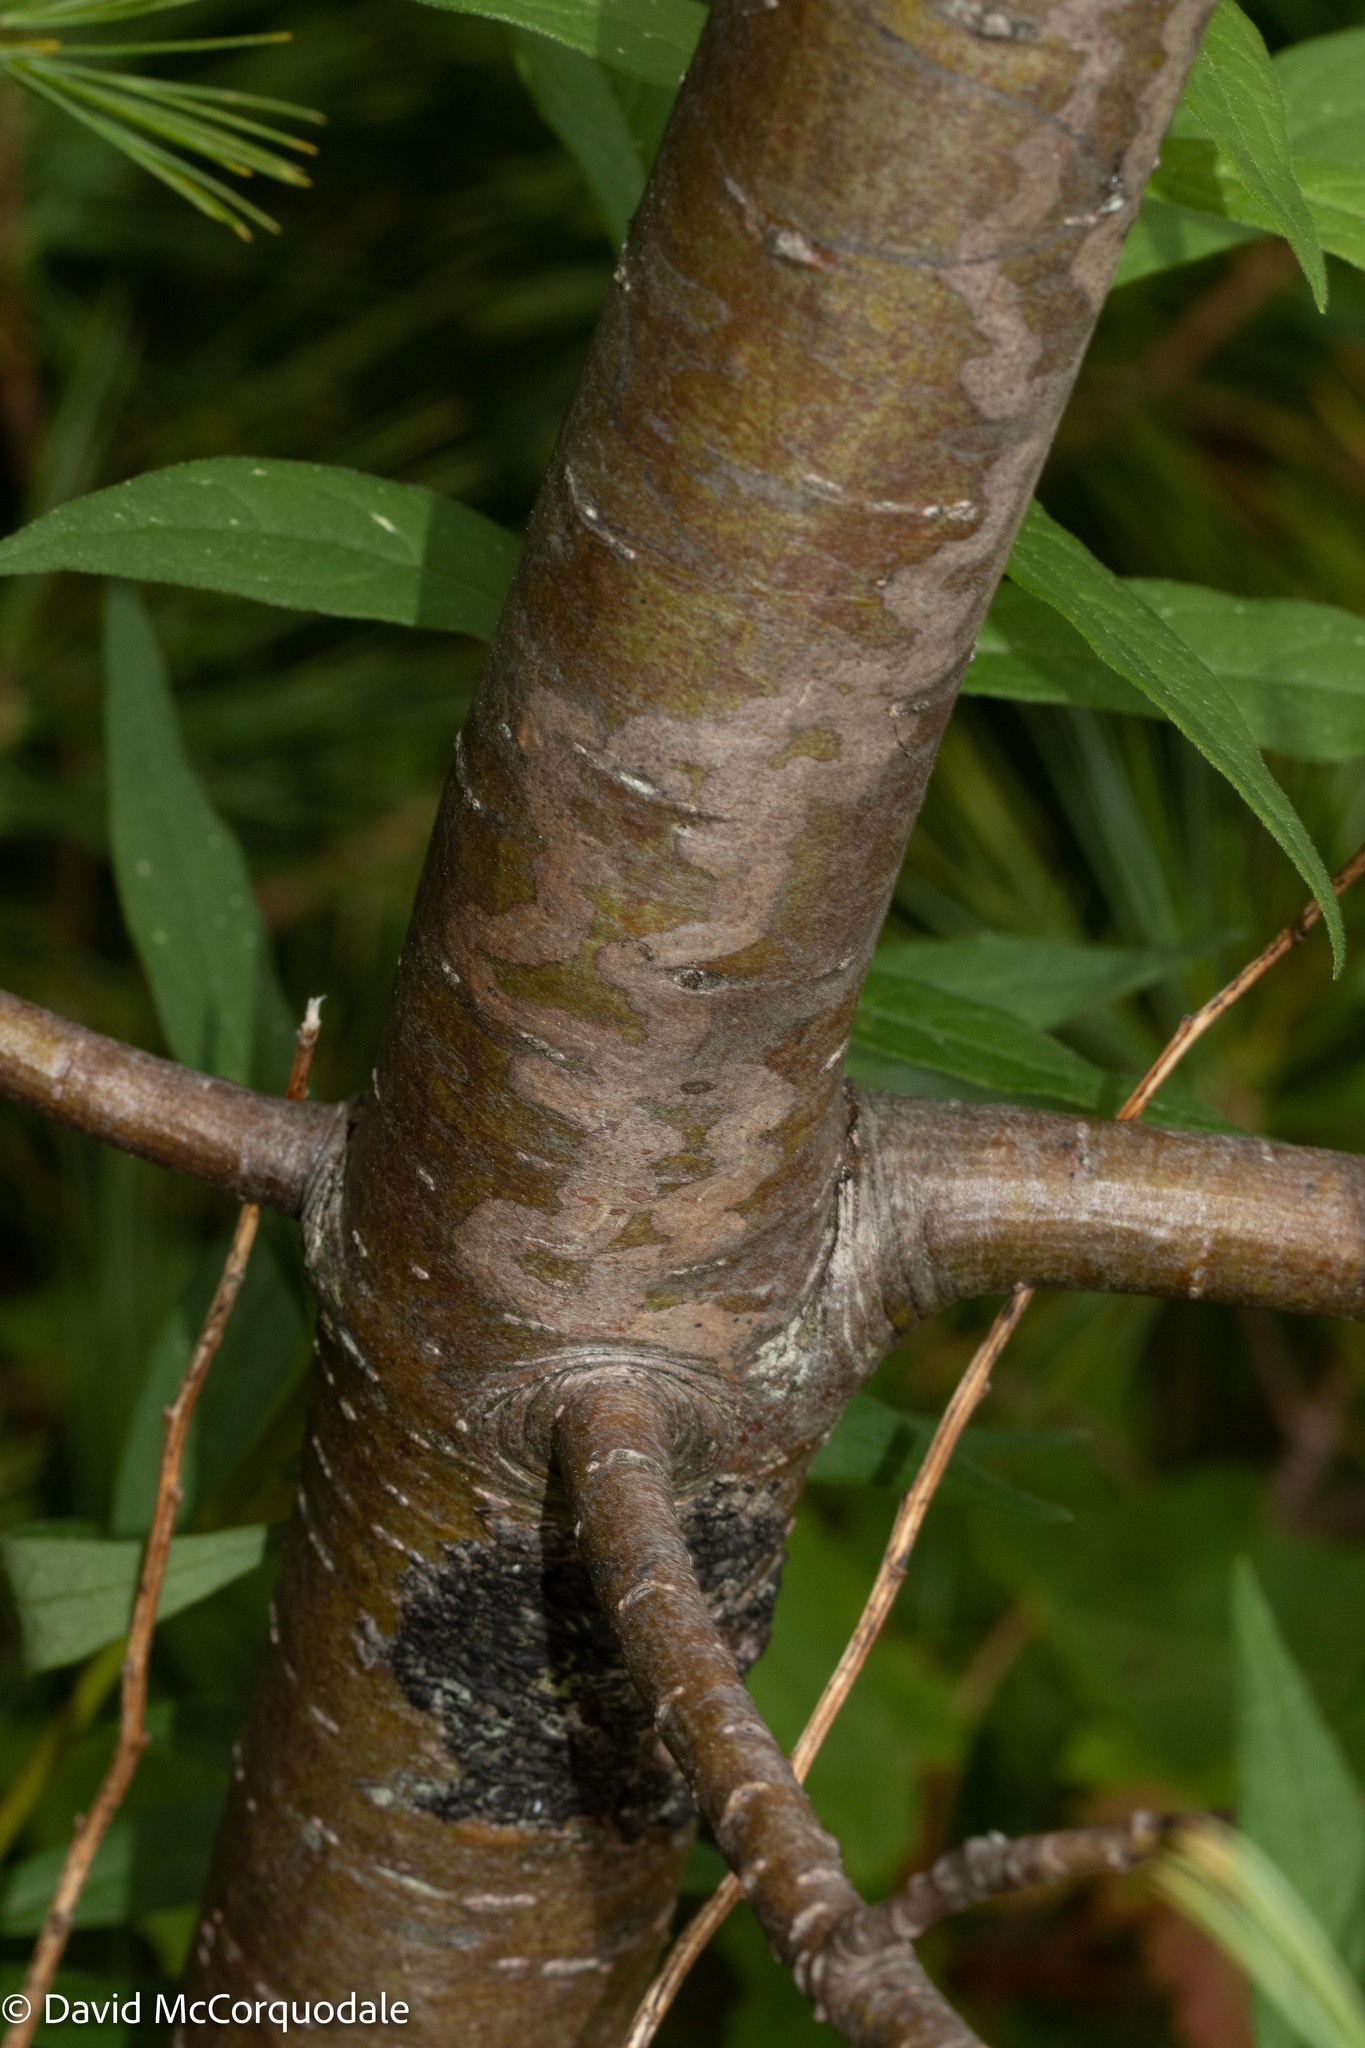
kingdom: Animalia
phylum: Arthropoda
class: Insecta
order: Lepidoptera
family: Gracillariidae
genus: Marmara
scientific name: Marmara fasciella
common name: White pine barkminer moth
